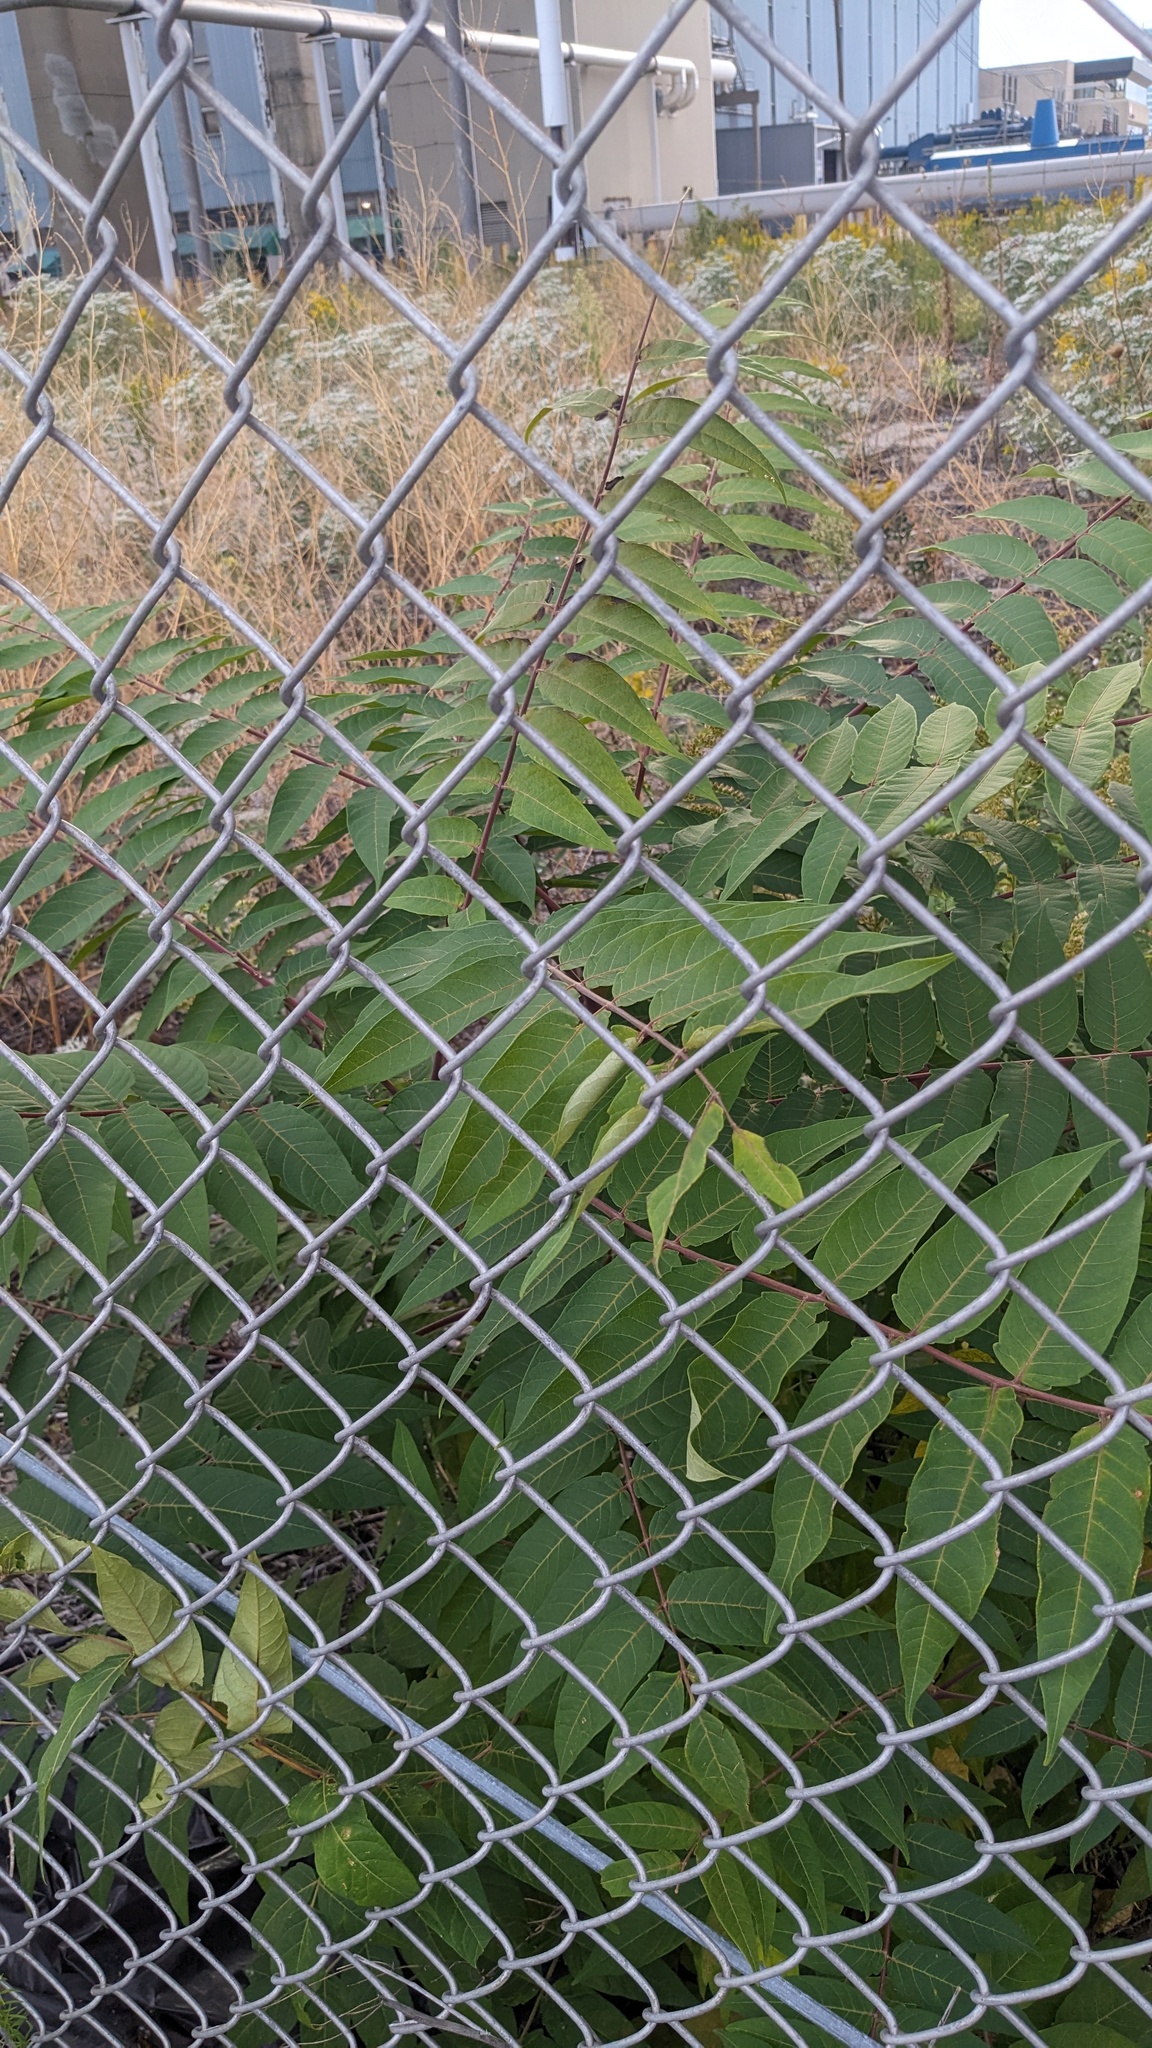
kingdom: Plantae
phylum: Tracheophyta
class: Magnoliopsida
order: Sapindales
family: Simaroubaceae
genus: Ailanthus
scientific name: Ailanthus altissima
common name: Tree-of-heaven
